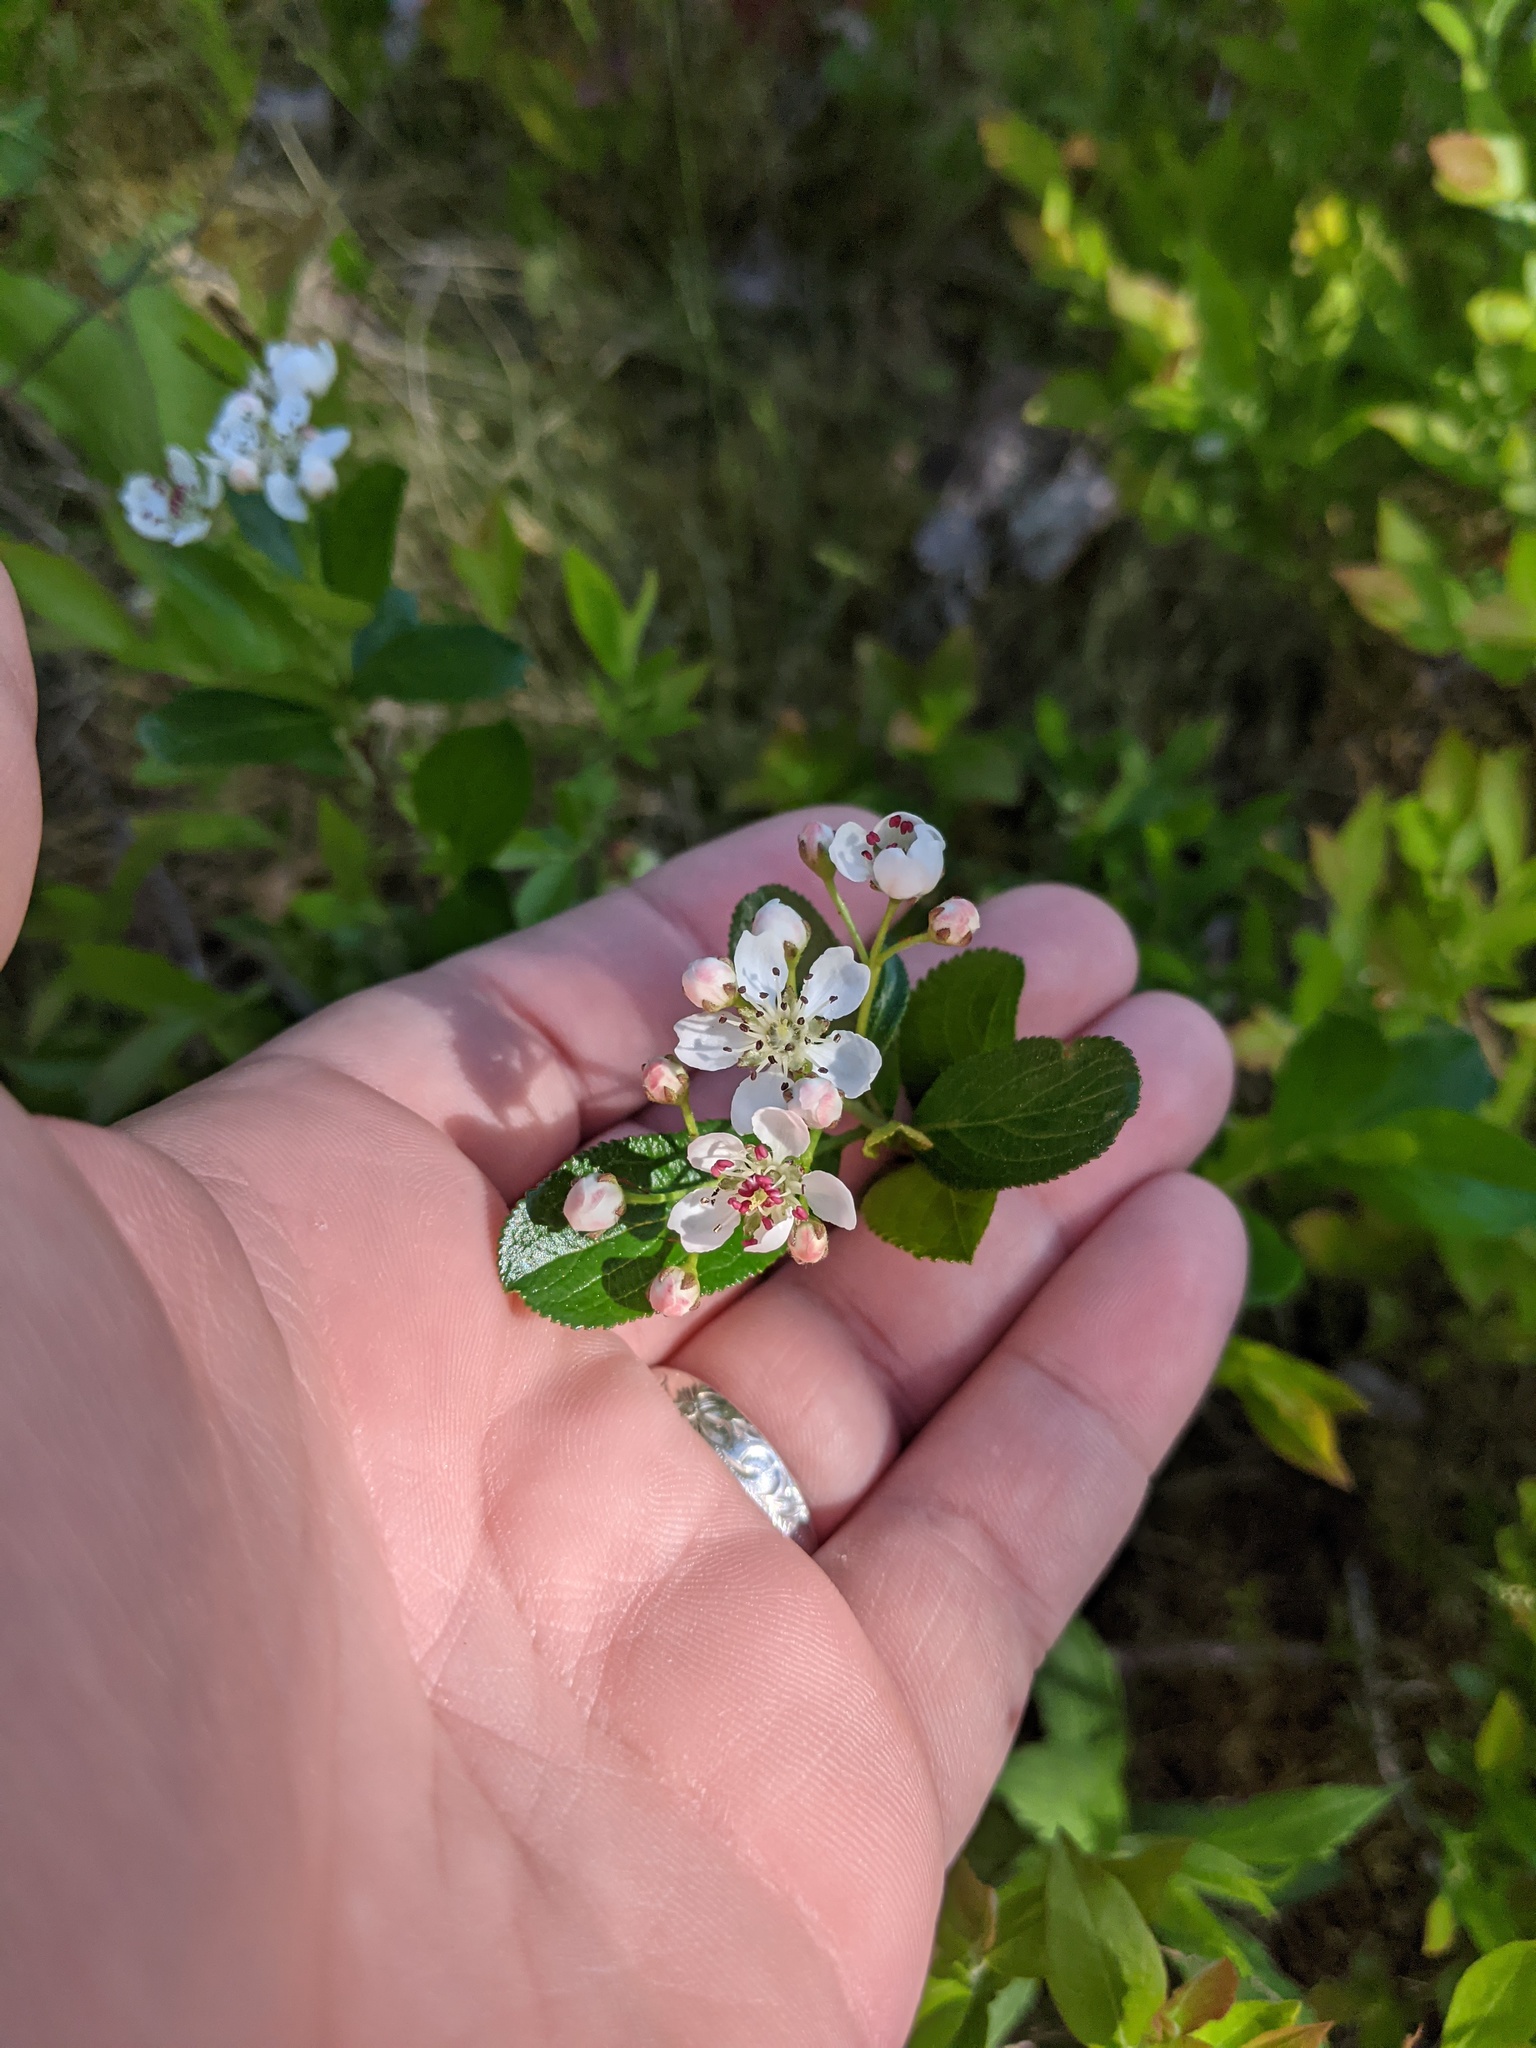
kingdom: Plantae
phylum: Tracheophyta
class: Magnoliopsida
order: Rosales
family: Rosaceae
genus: Aronia
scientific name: Aronia melanocarpa
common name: Black chokeberry
